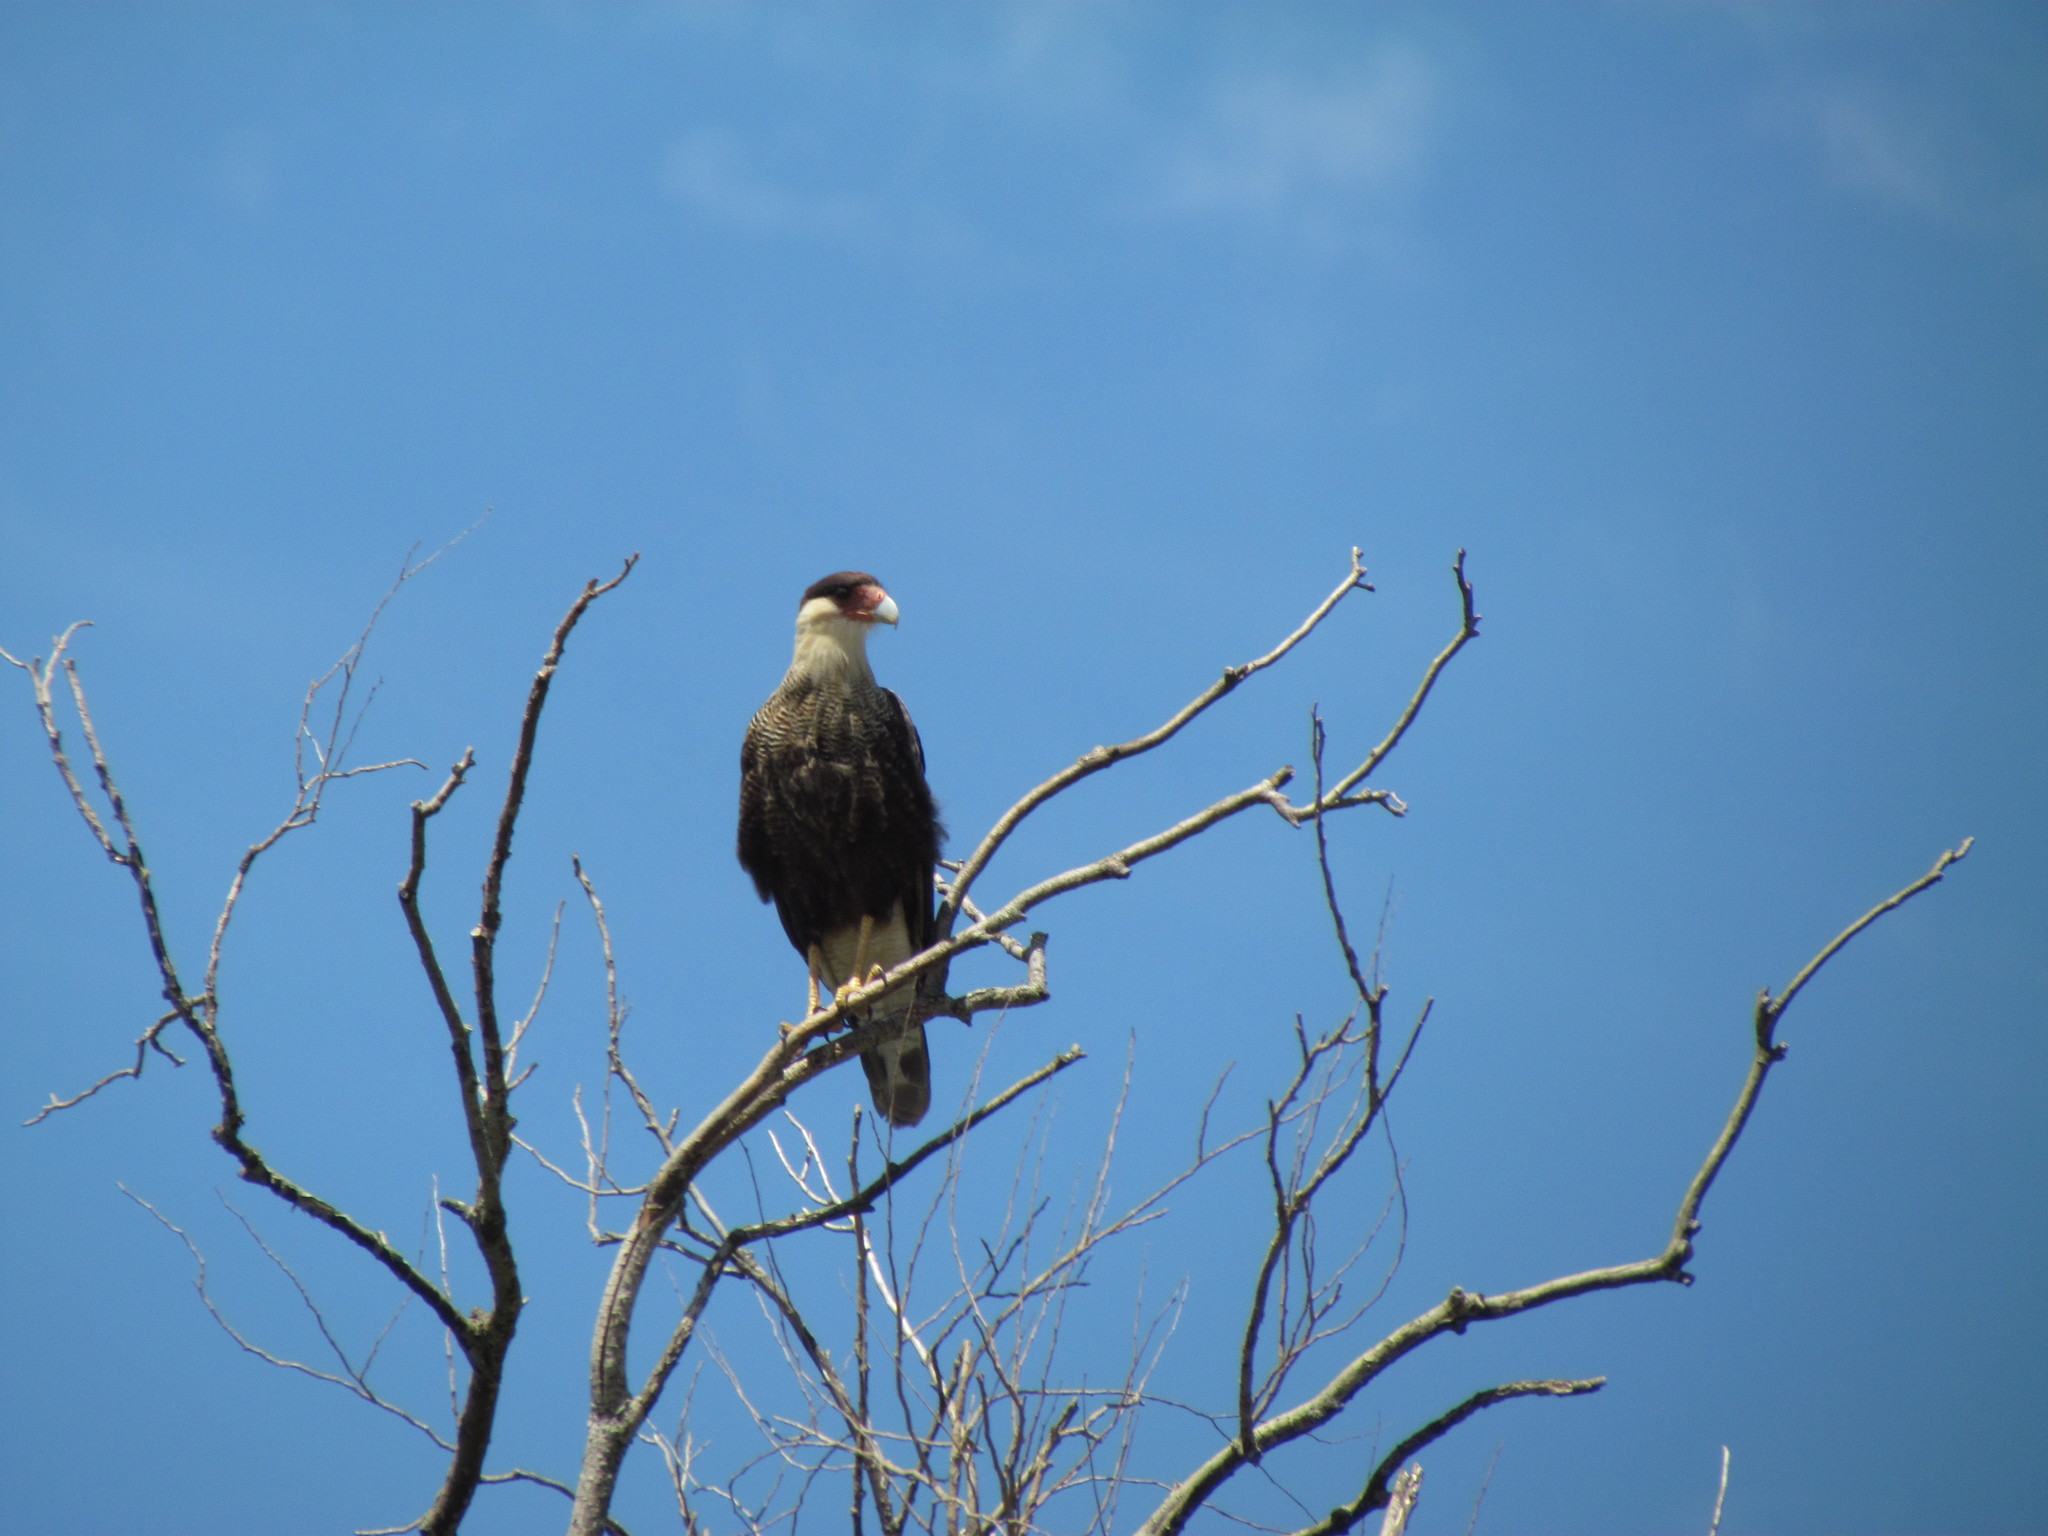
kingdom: Animalia
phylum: Chordata
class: Aves
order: Falconiformes
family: Falconidae
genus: Caracara
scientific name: Caracara plancus
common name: Southern caracara
